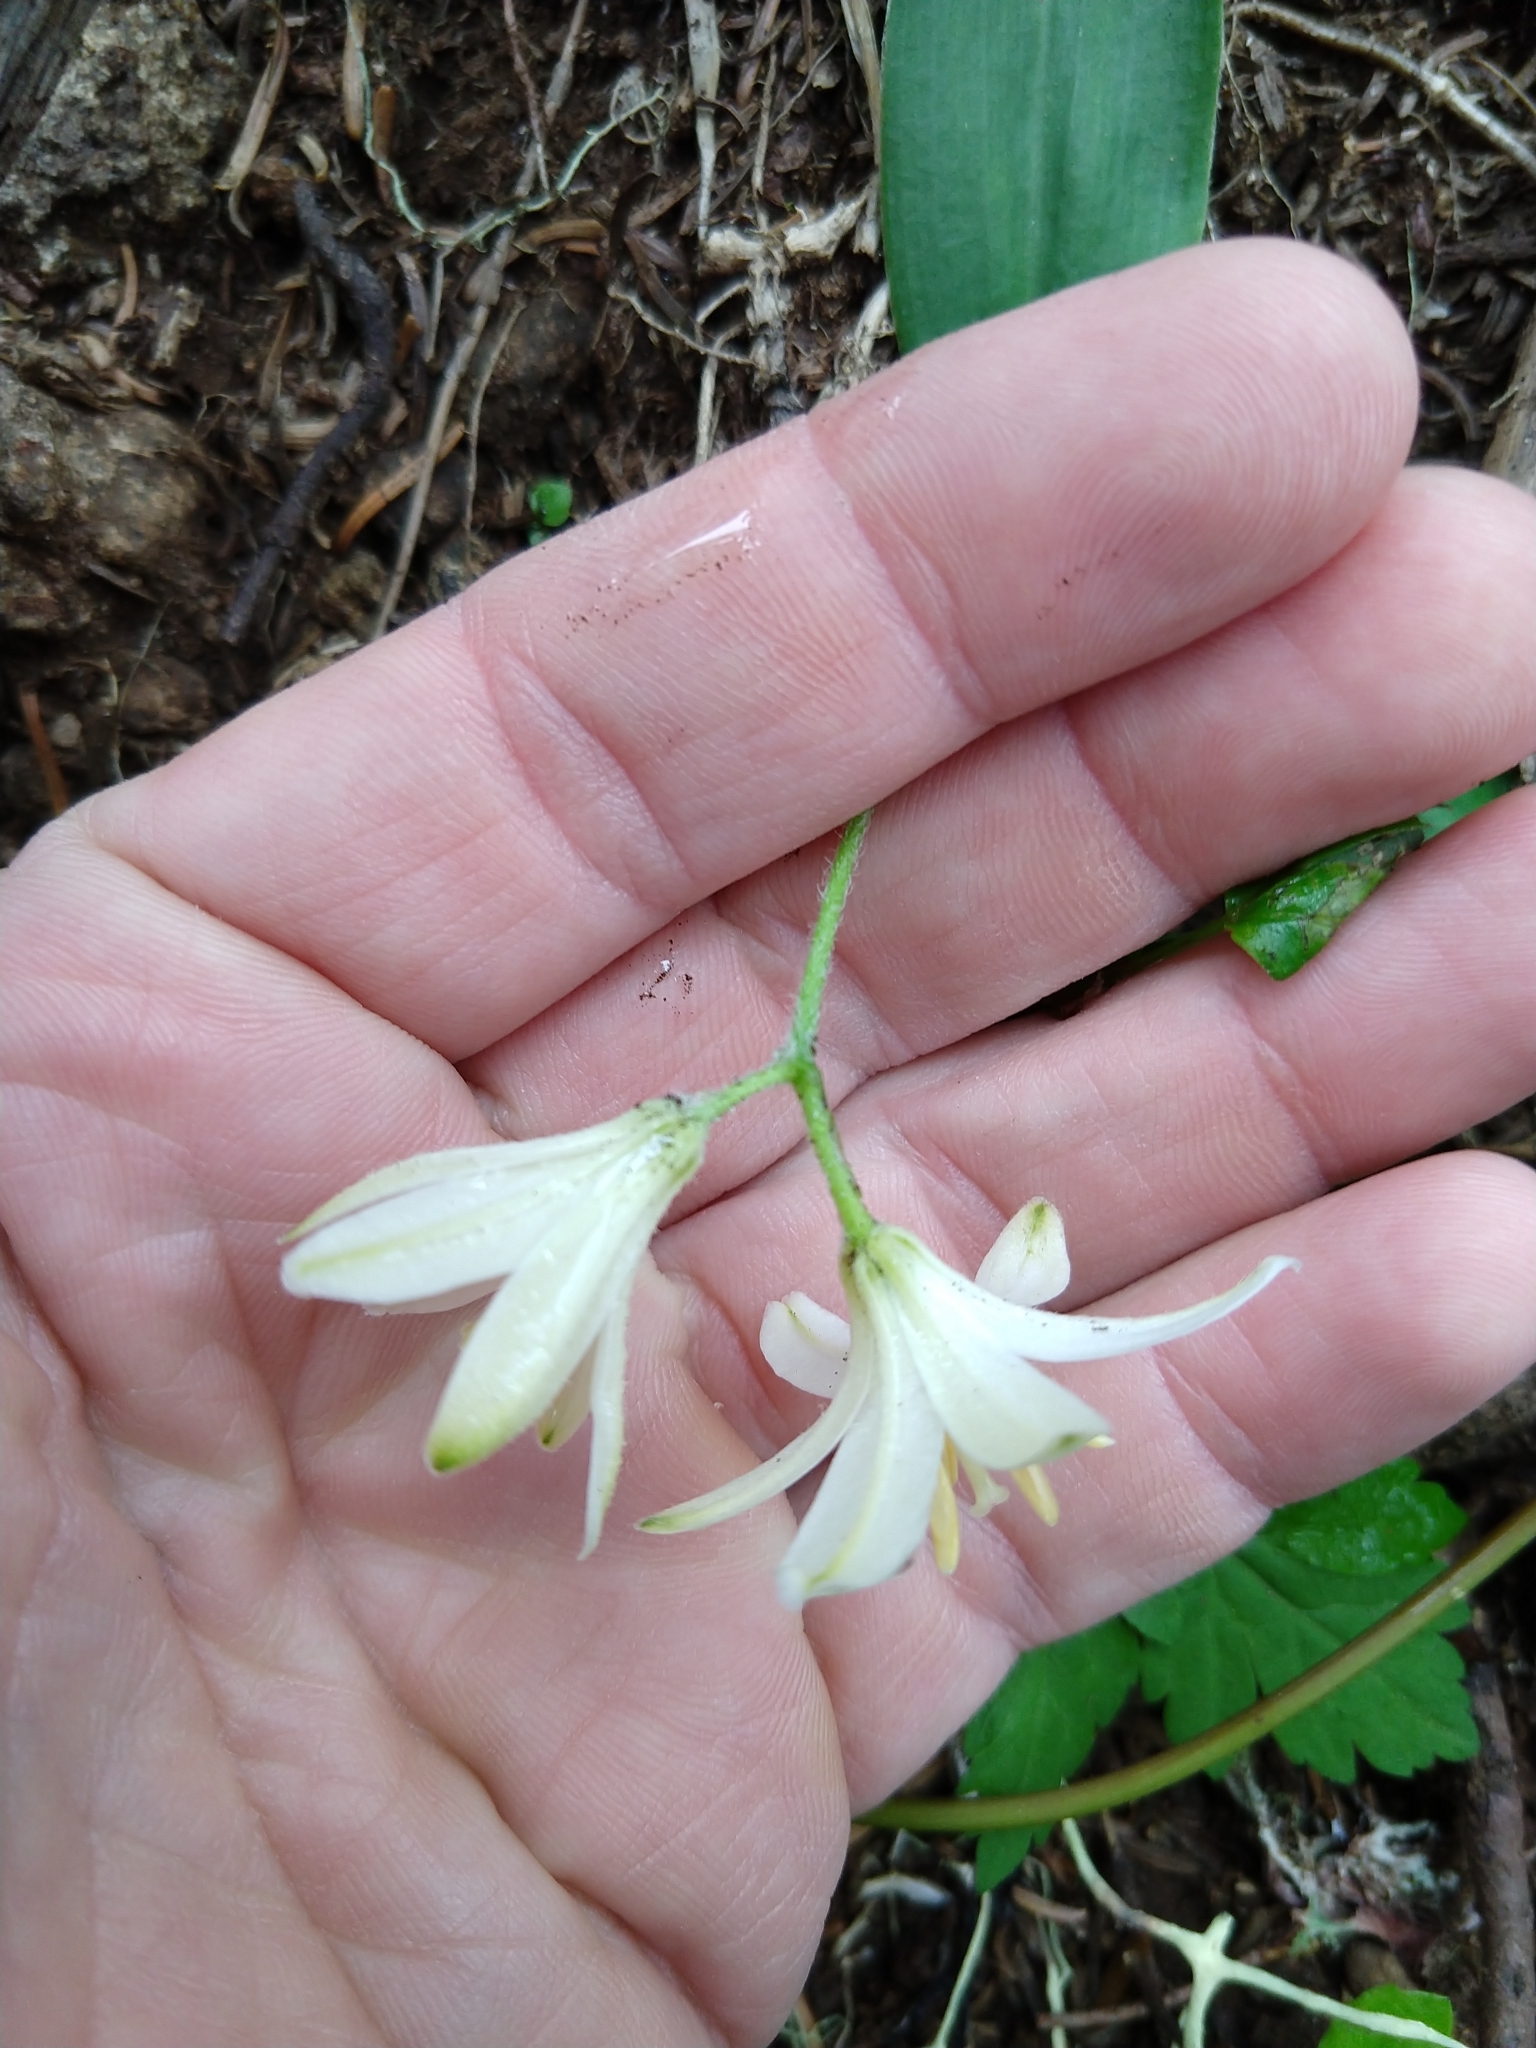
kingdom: Plantae
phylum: Tracheophyta
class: Liliopsida
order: Liliales
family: Liliaceae
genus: Clintonia
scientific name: Clintonia uniflora
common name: Queen's cup
